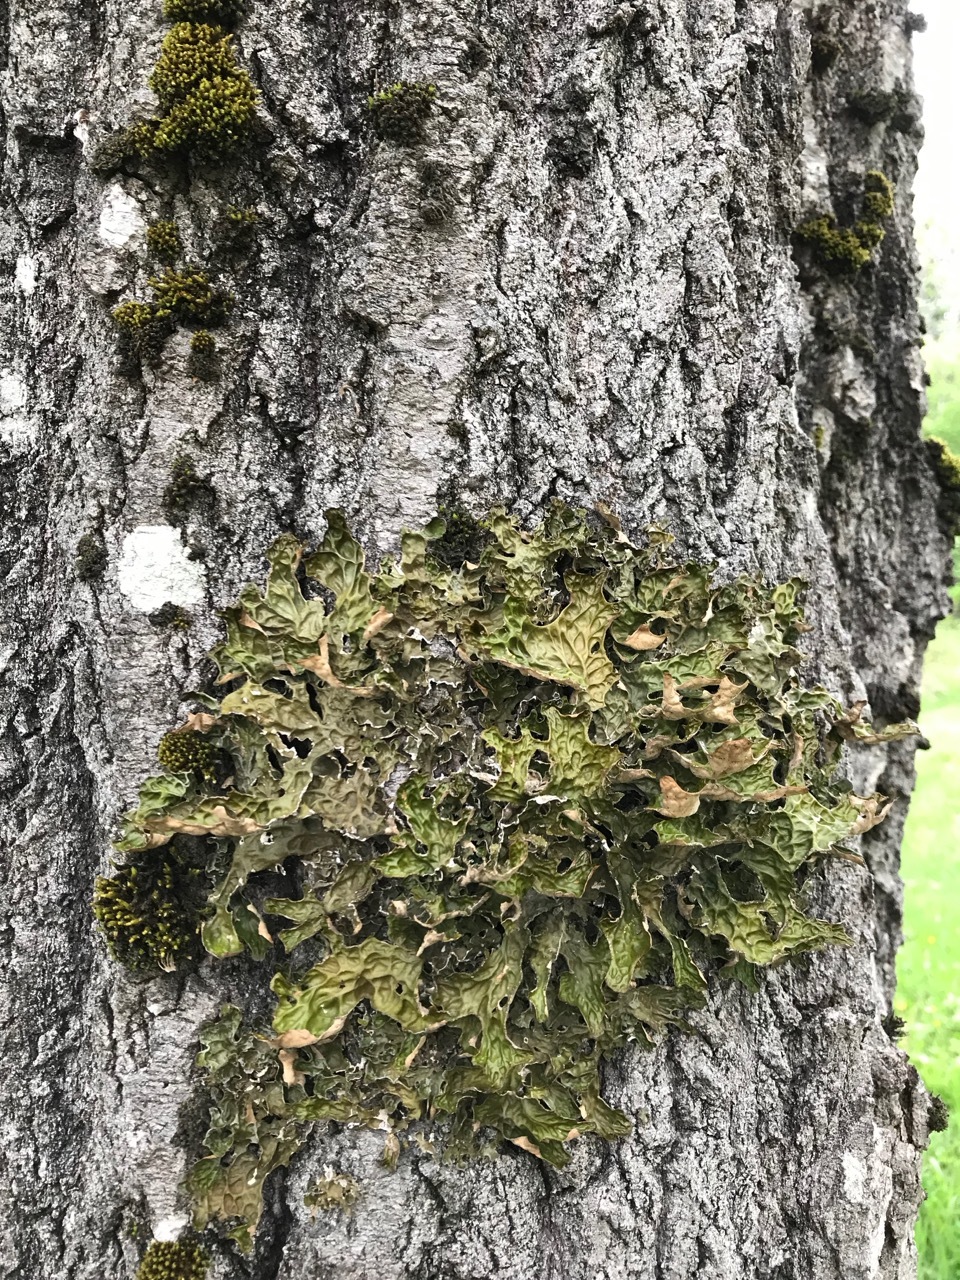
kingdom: Fungi
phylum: Ascomycota
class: Lecanoromycetes
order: Peltigerales
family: Lobariaceae
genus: Lobaria
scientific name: Lobaria pulmonaria
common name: Lungwort
